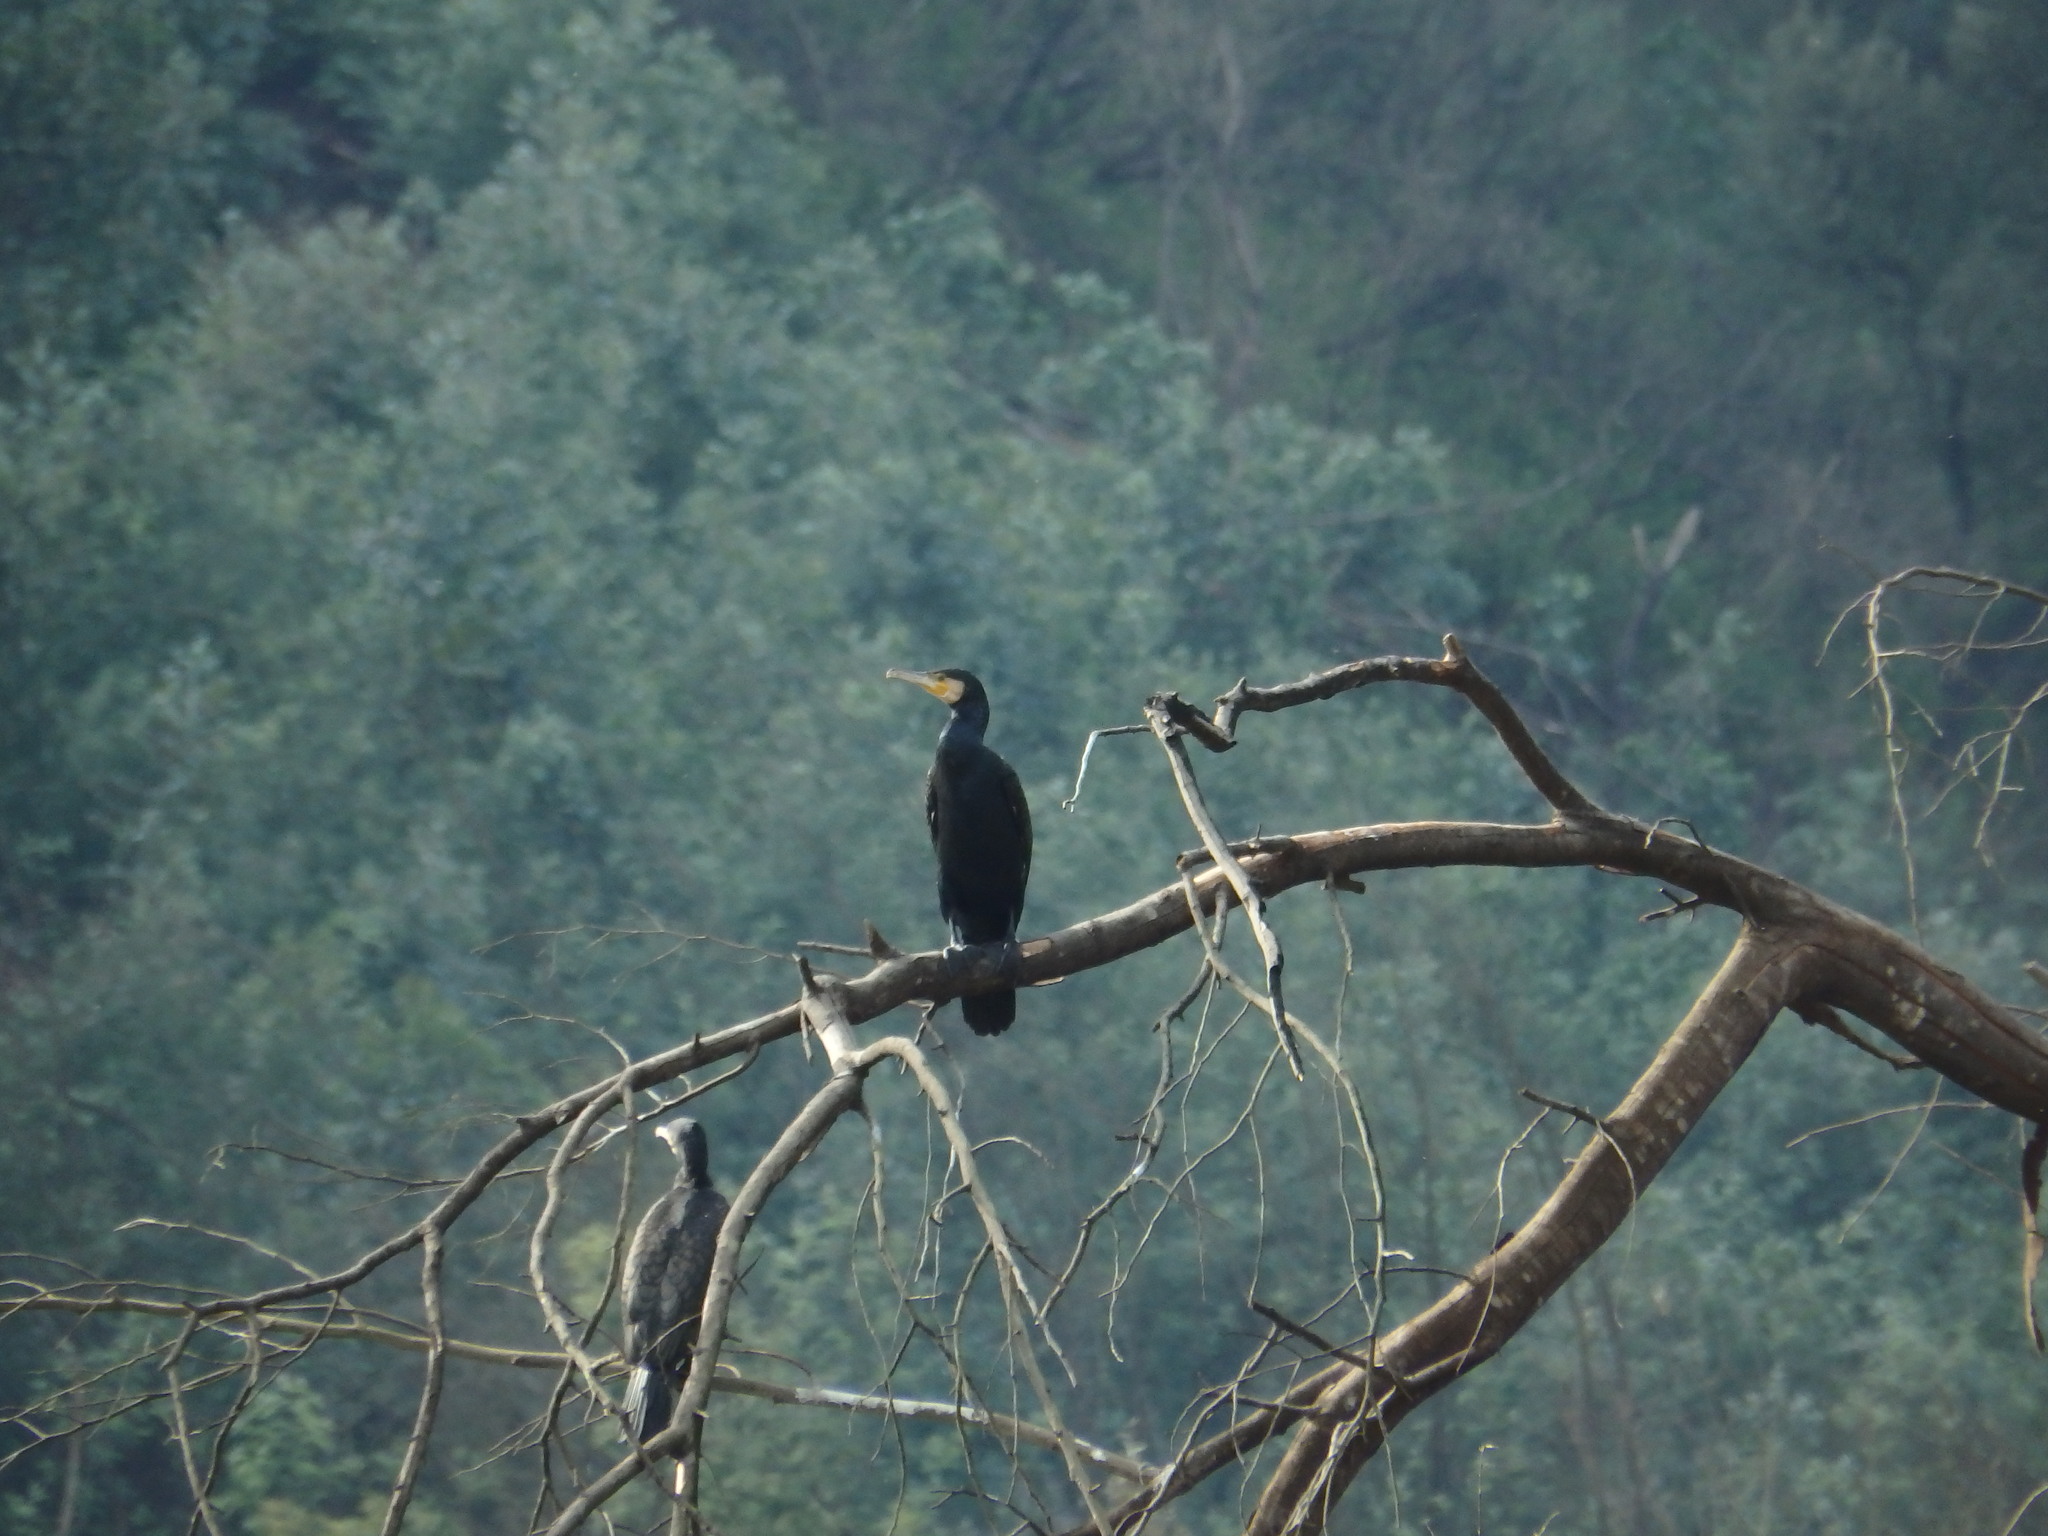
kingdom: Animalia
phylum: Chordata
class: Aves
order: Suliformes
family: Phalacrocoracidae
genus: Phalacrocorax
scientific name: Phalacrocorax carbo
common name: Great cormorant
